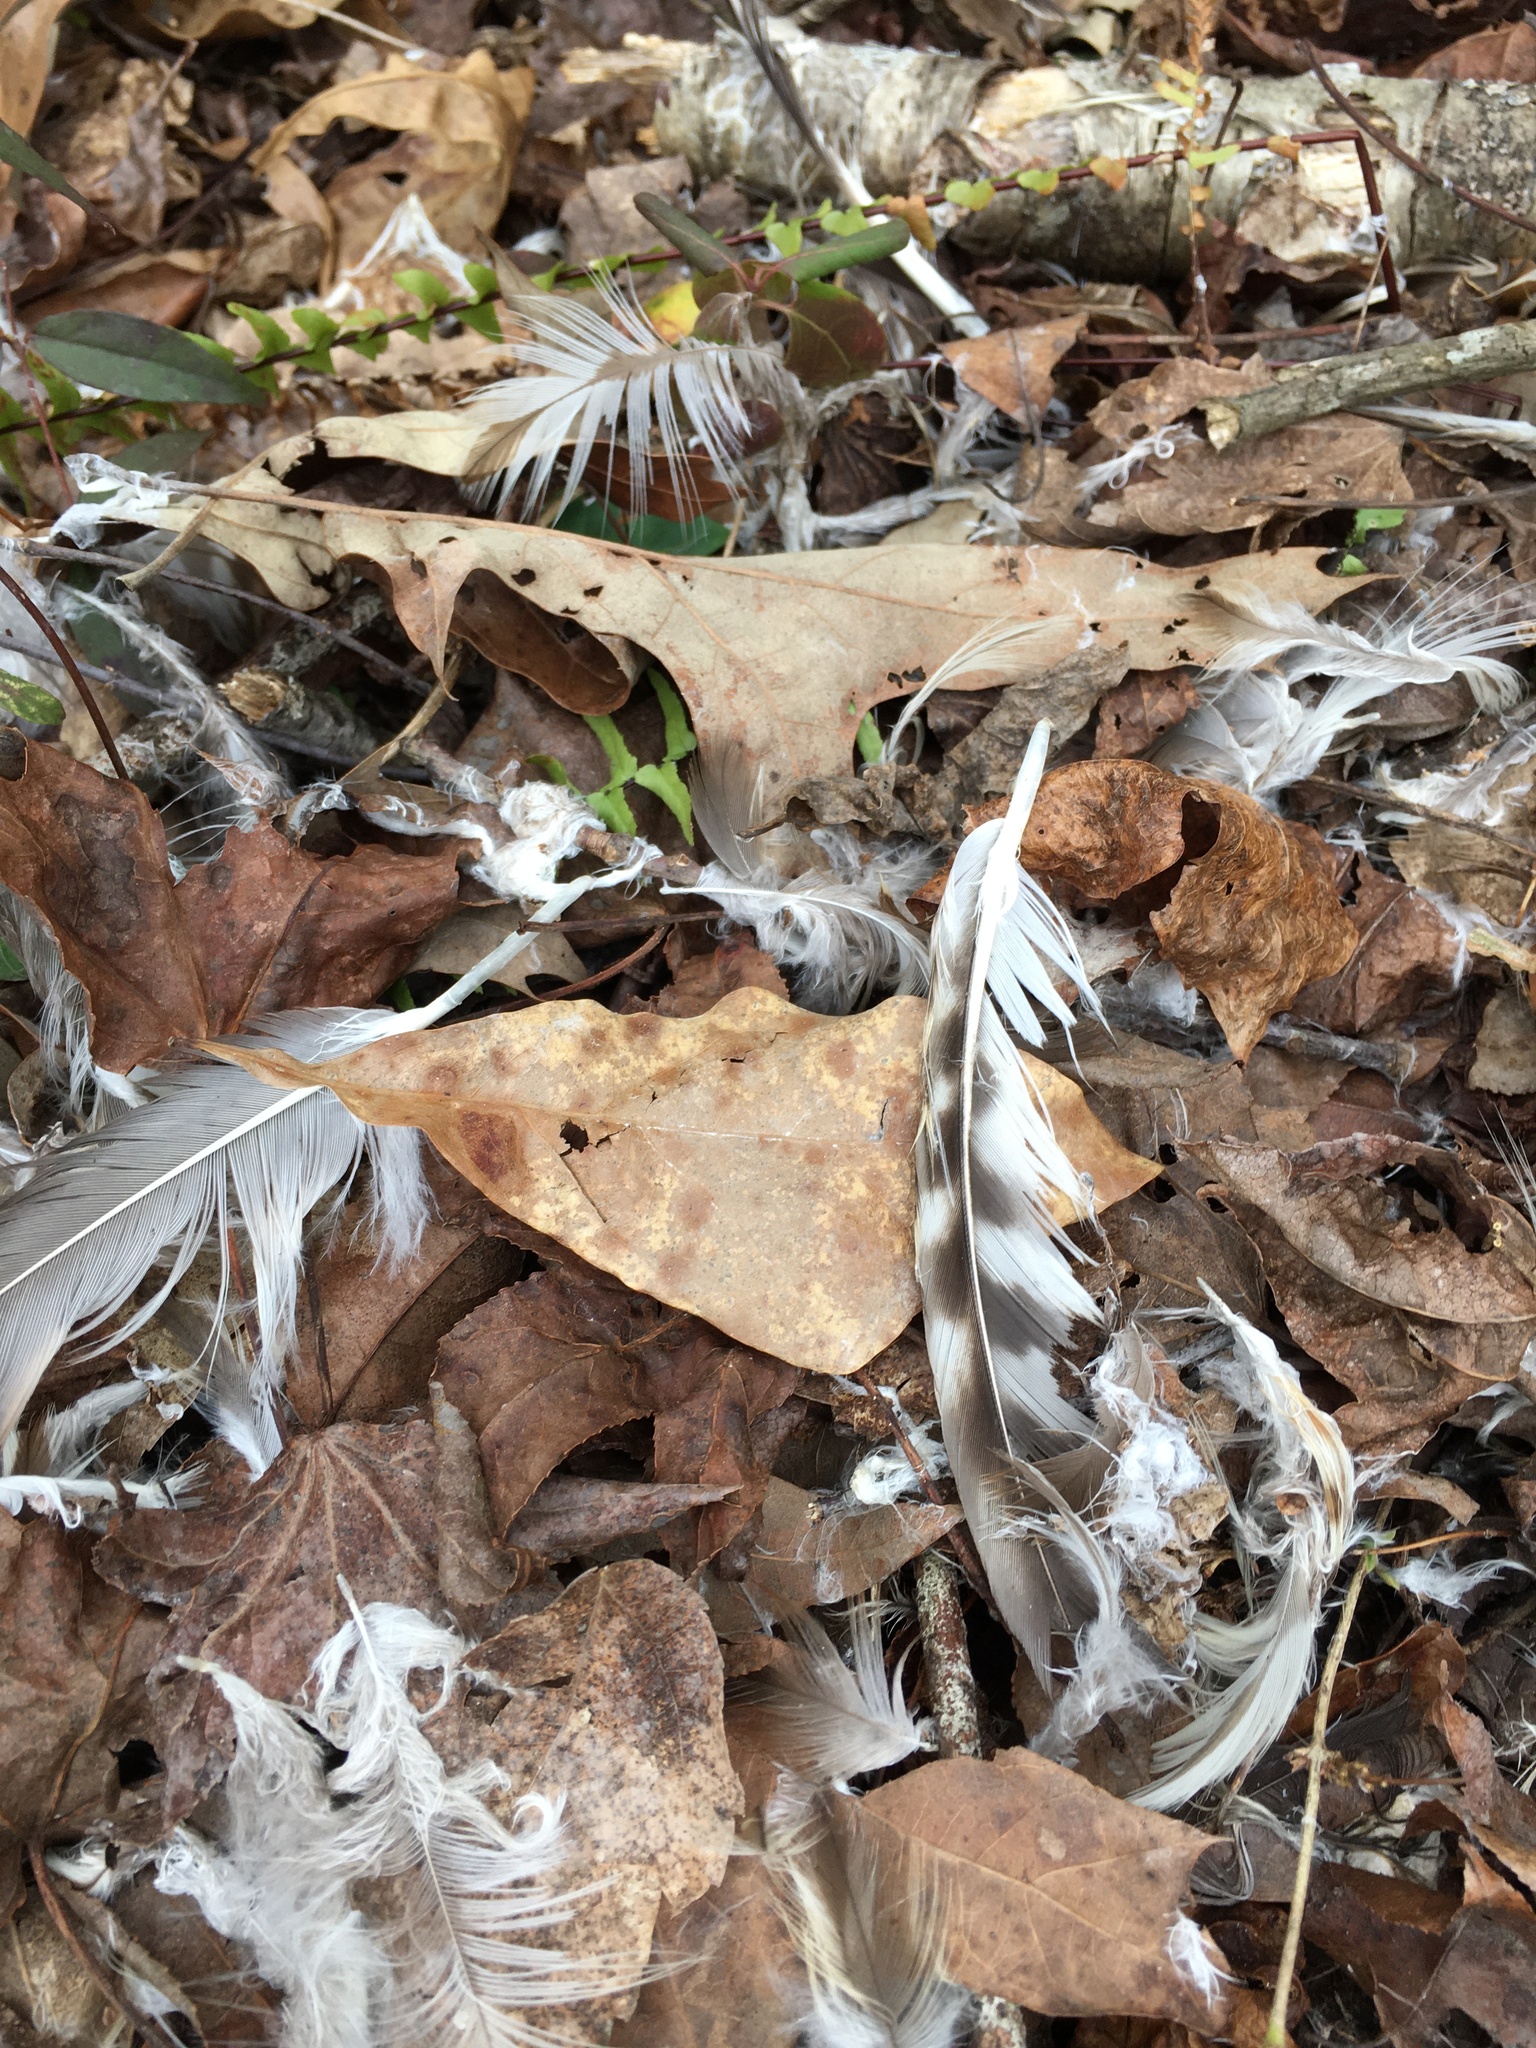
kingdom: Animalia
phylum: Chordata
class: Aves
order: Accipitriformes
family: Accipitridae
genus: Buteo
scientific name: Buteo lineatus
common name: Red-shouldered hawk
